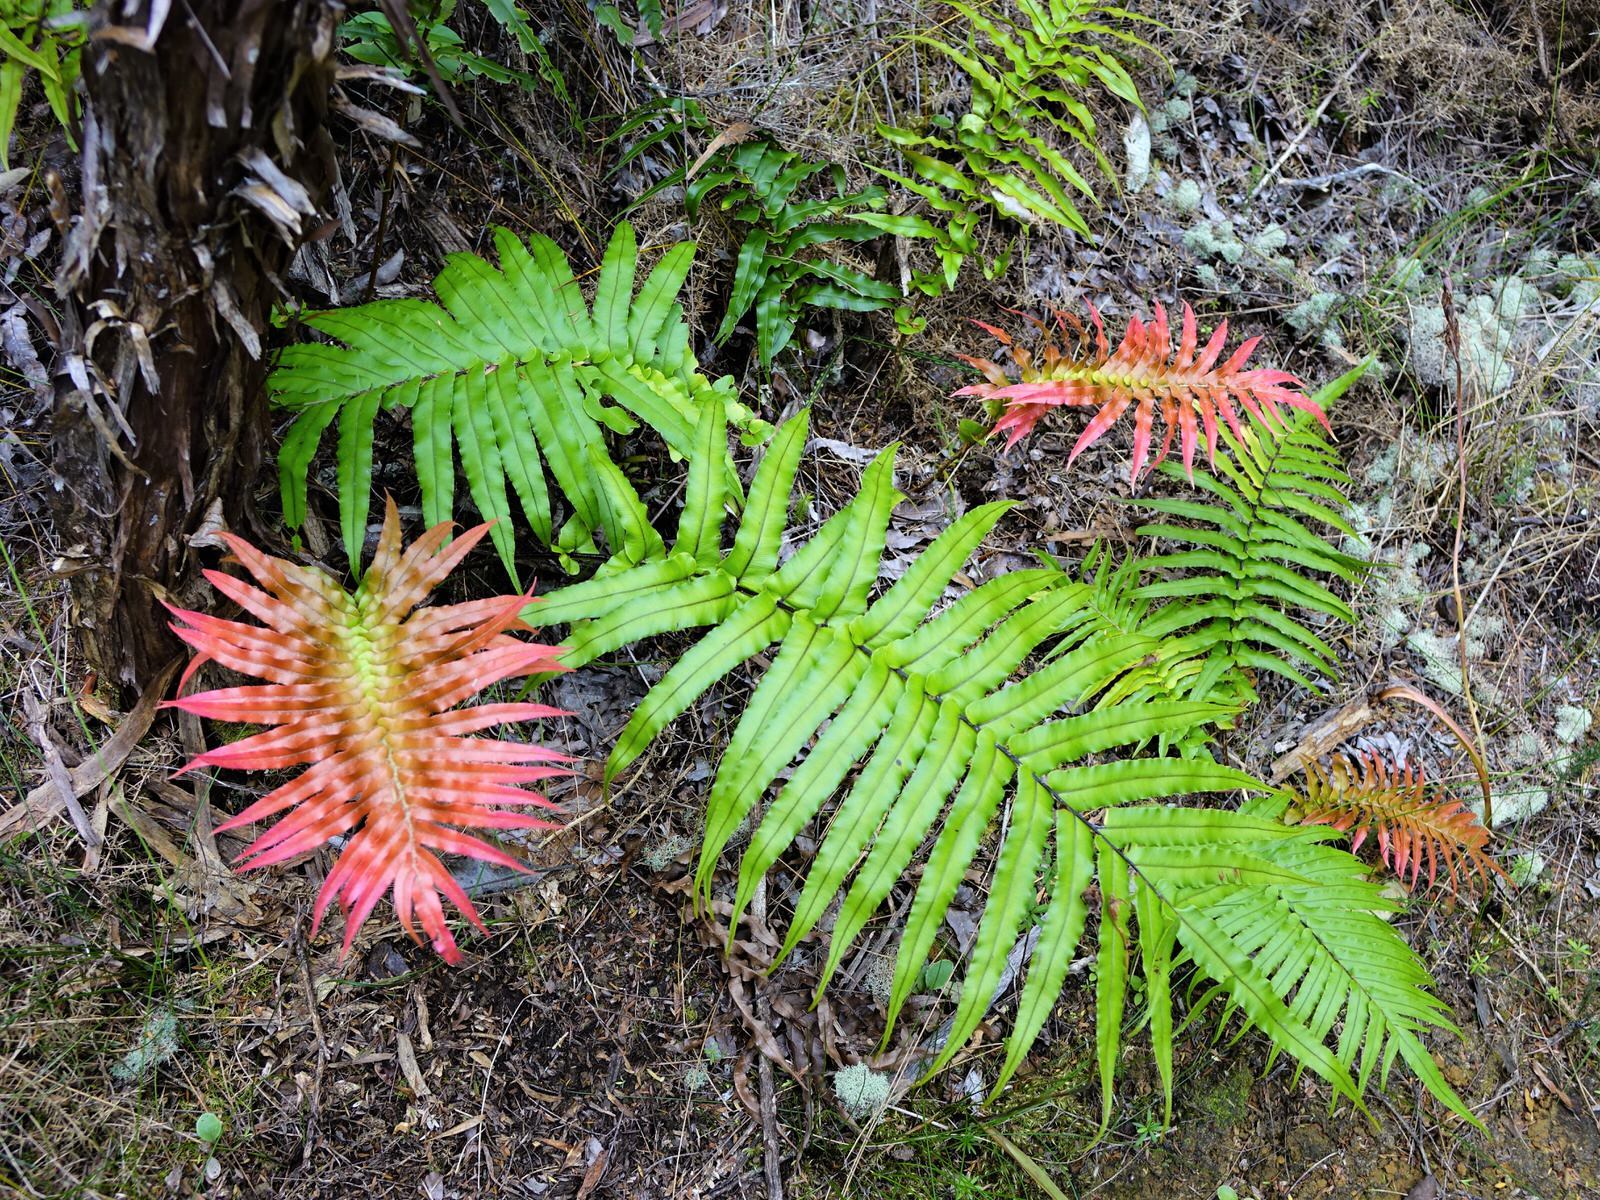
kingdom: Plantae
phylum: Tracheophyta
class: Polypodiopsida
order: Polypodiales
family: Blechnaceae
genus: Parablechnum
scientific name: Parablechnum novae-zelandiae
